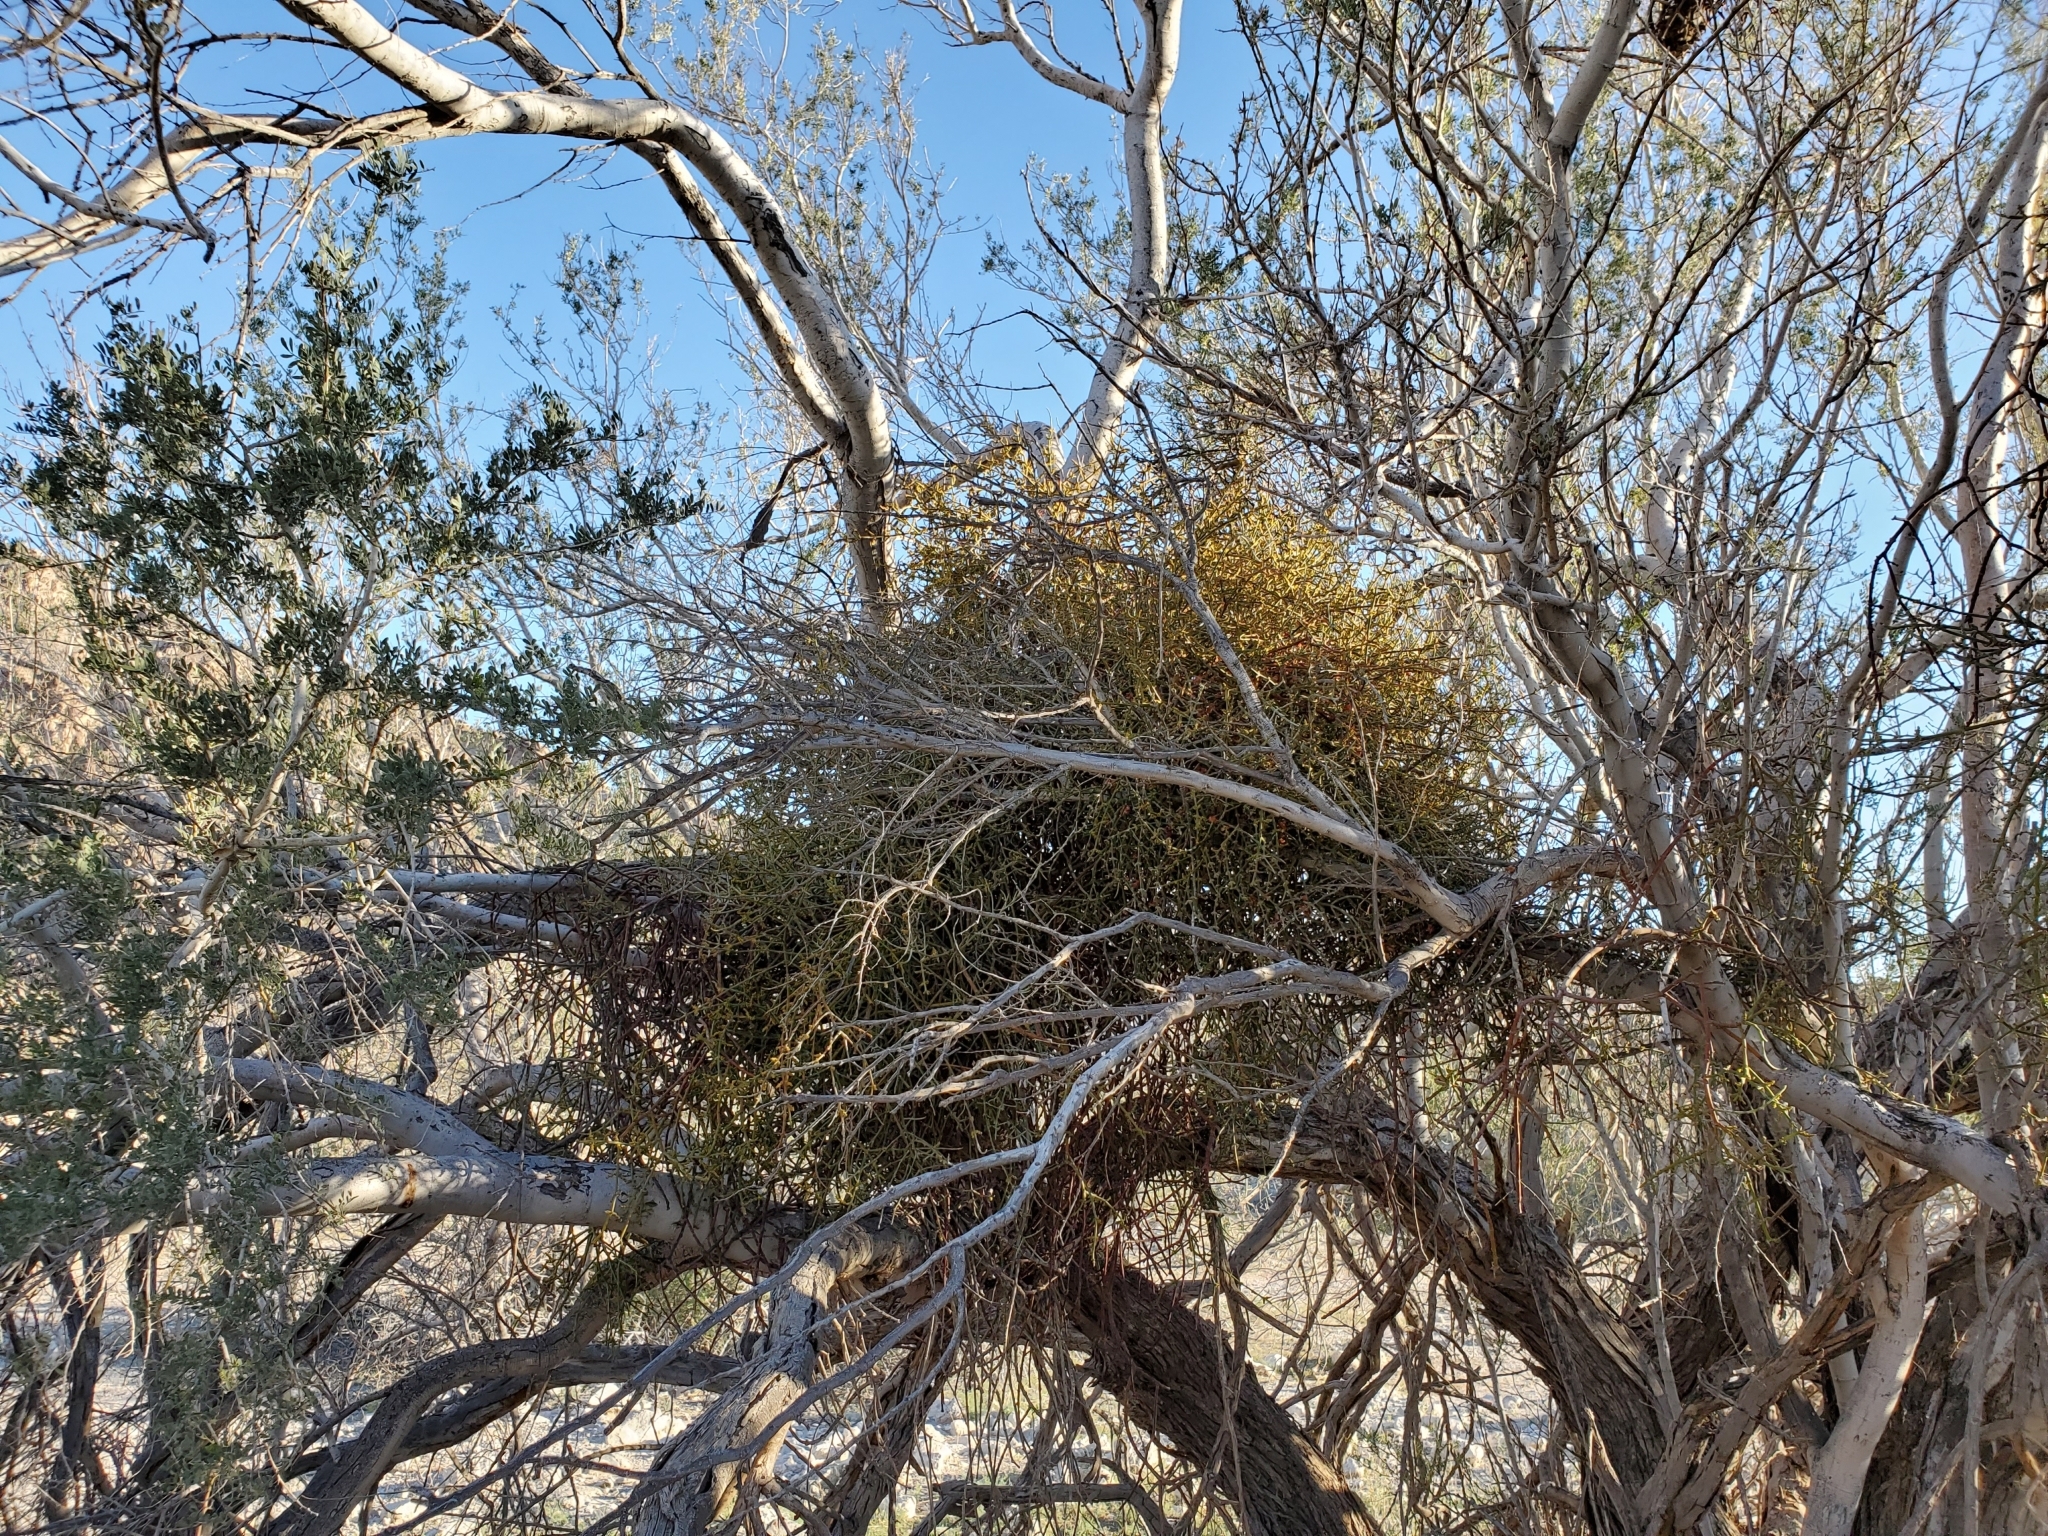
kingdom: Plantae
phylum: Tracheophyta
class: Magnoliopsida
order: Santalales
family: Viscaceae
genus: Phoradendron
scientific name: Phoradendron californicum
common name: Acacia mistletoe
